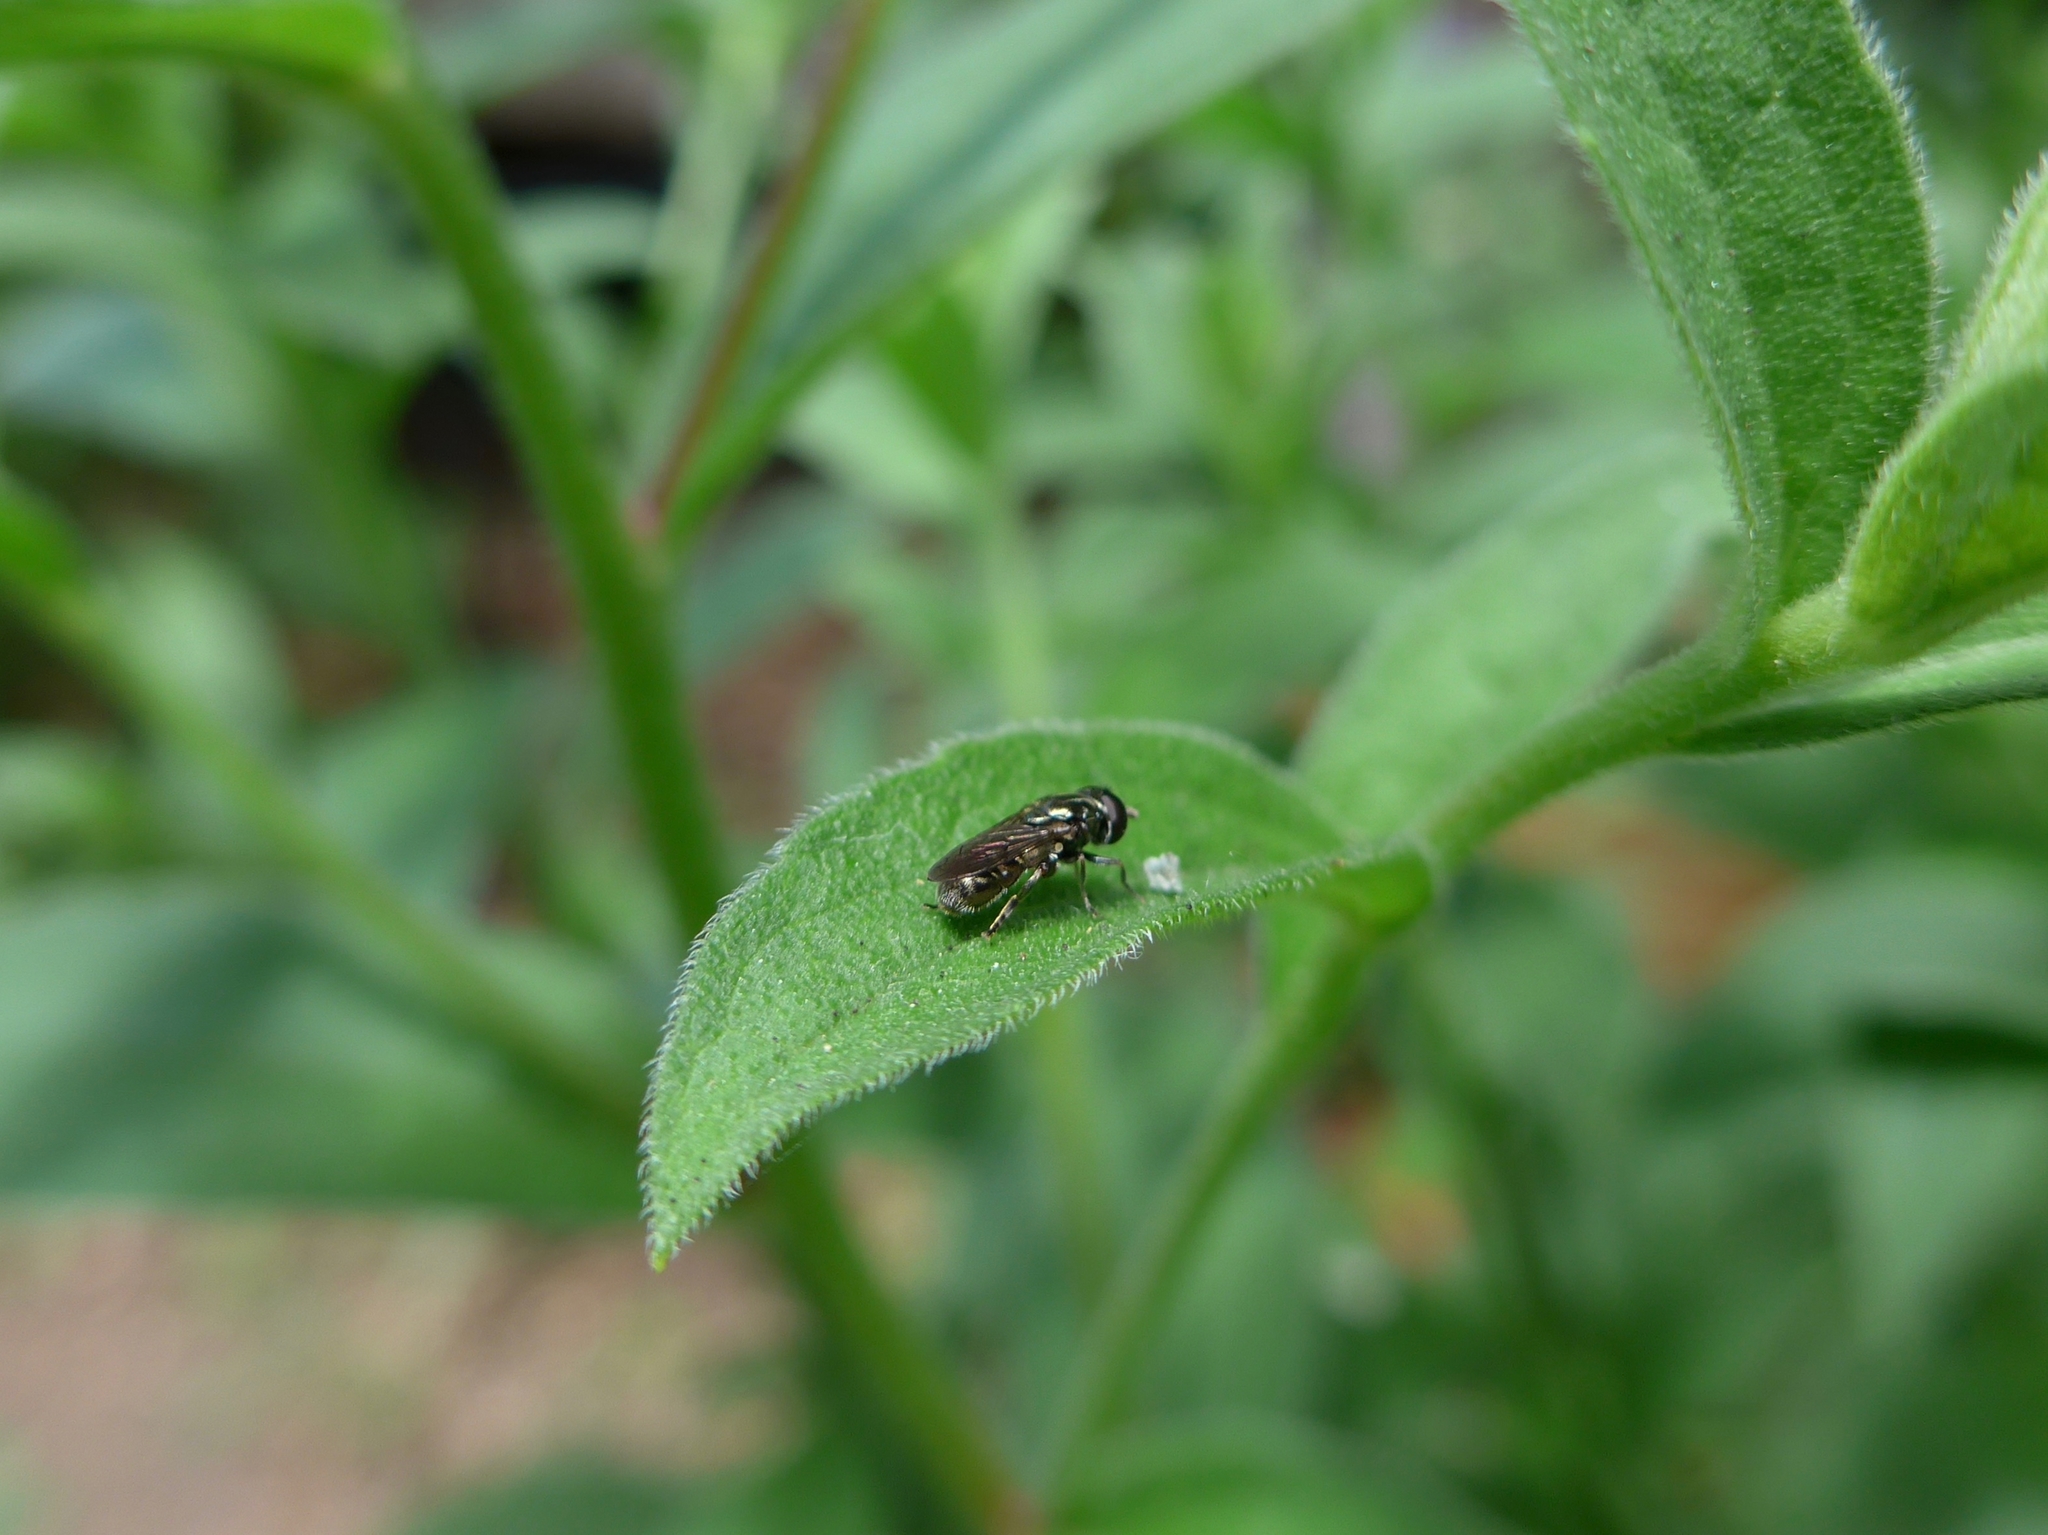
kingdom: Animalia
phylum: Arthropoda
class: Insecta
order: Diptera
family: Syrphidae
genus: Eumerus
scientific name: Eumerus
